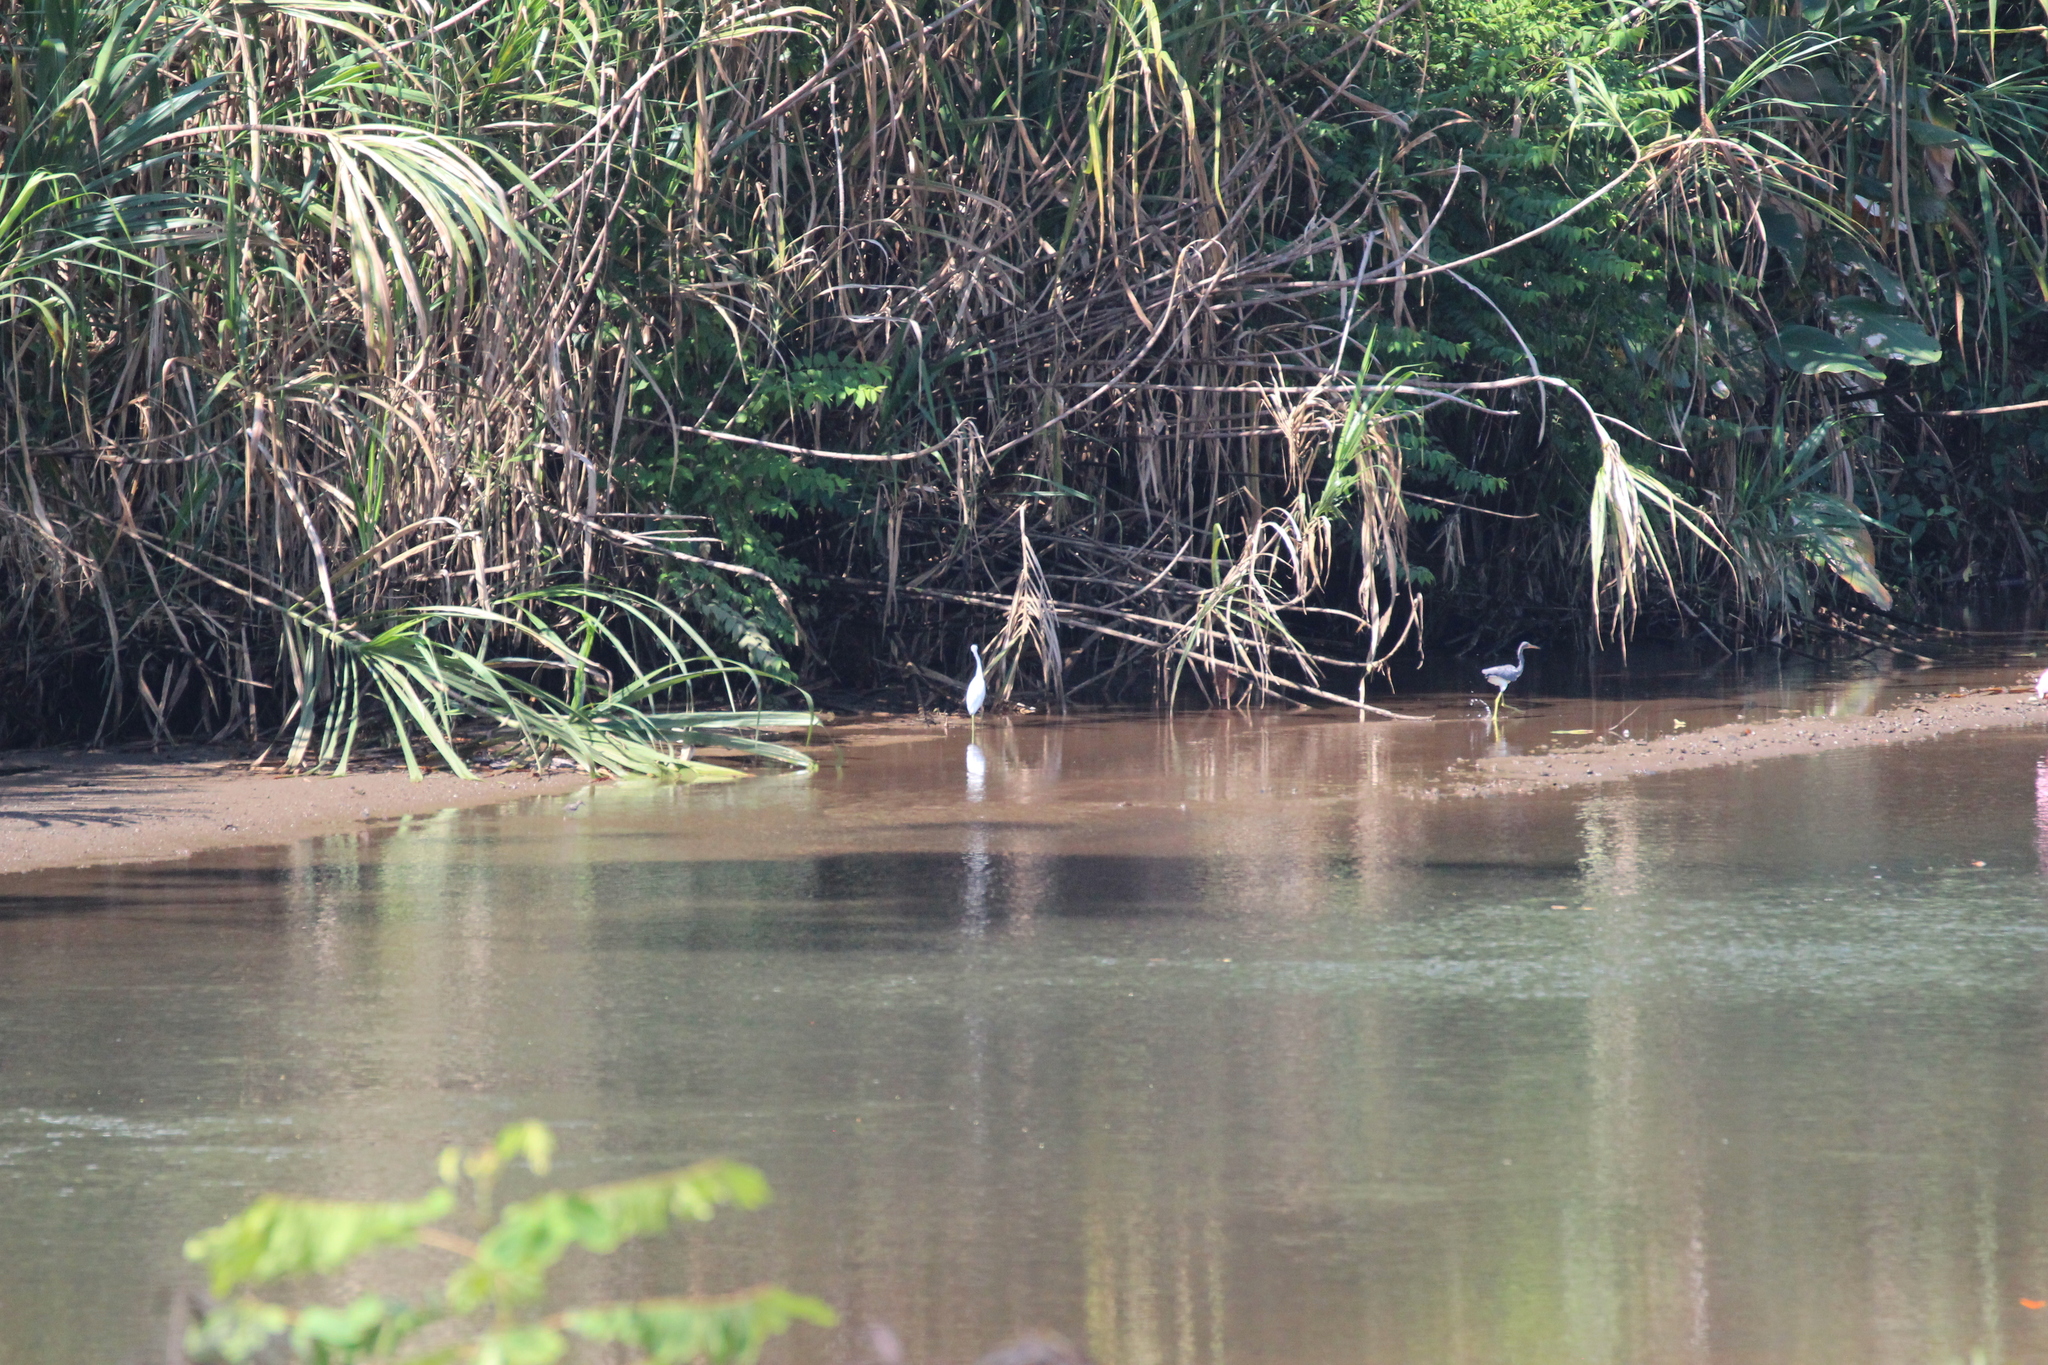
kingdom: Animalia
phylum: Chordata
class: Aves
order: Pelecaniformes
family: Ardeidae
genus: Egretta
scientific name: Egretta tricolor
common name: Tricolored heron
